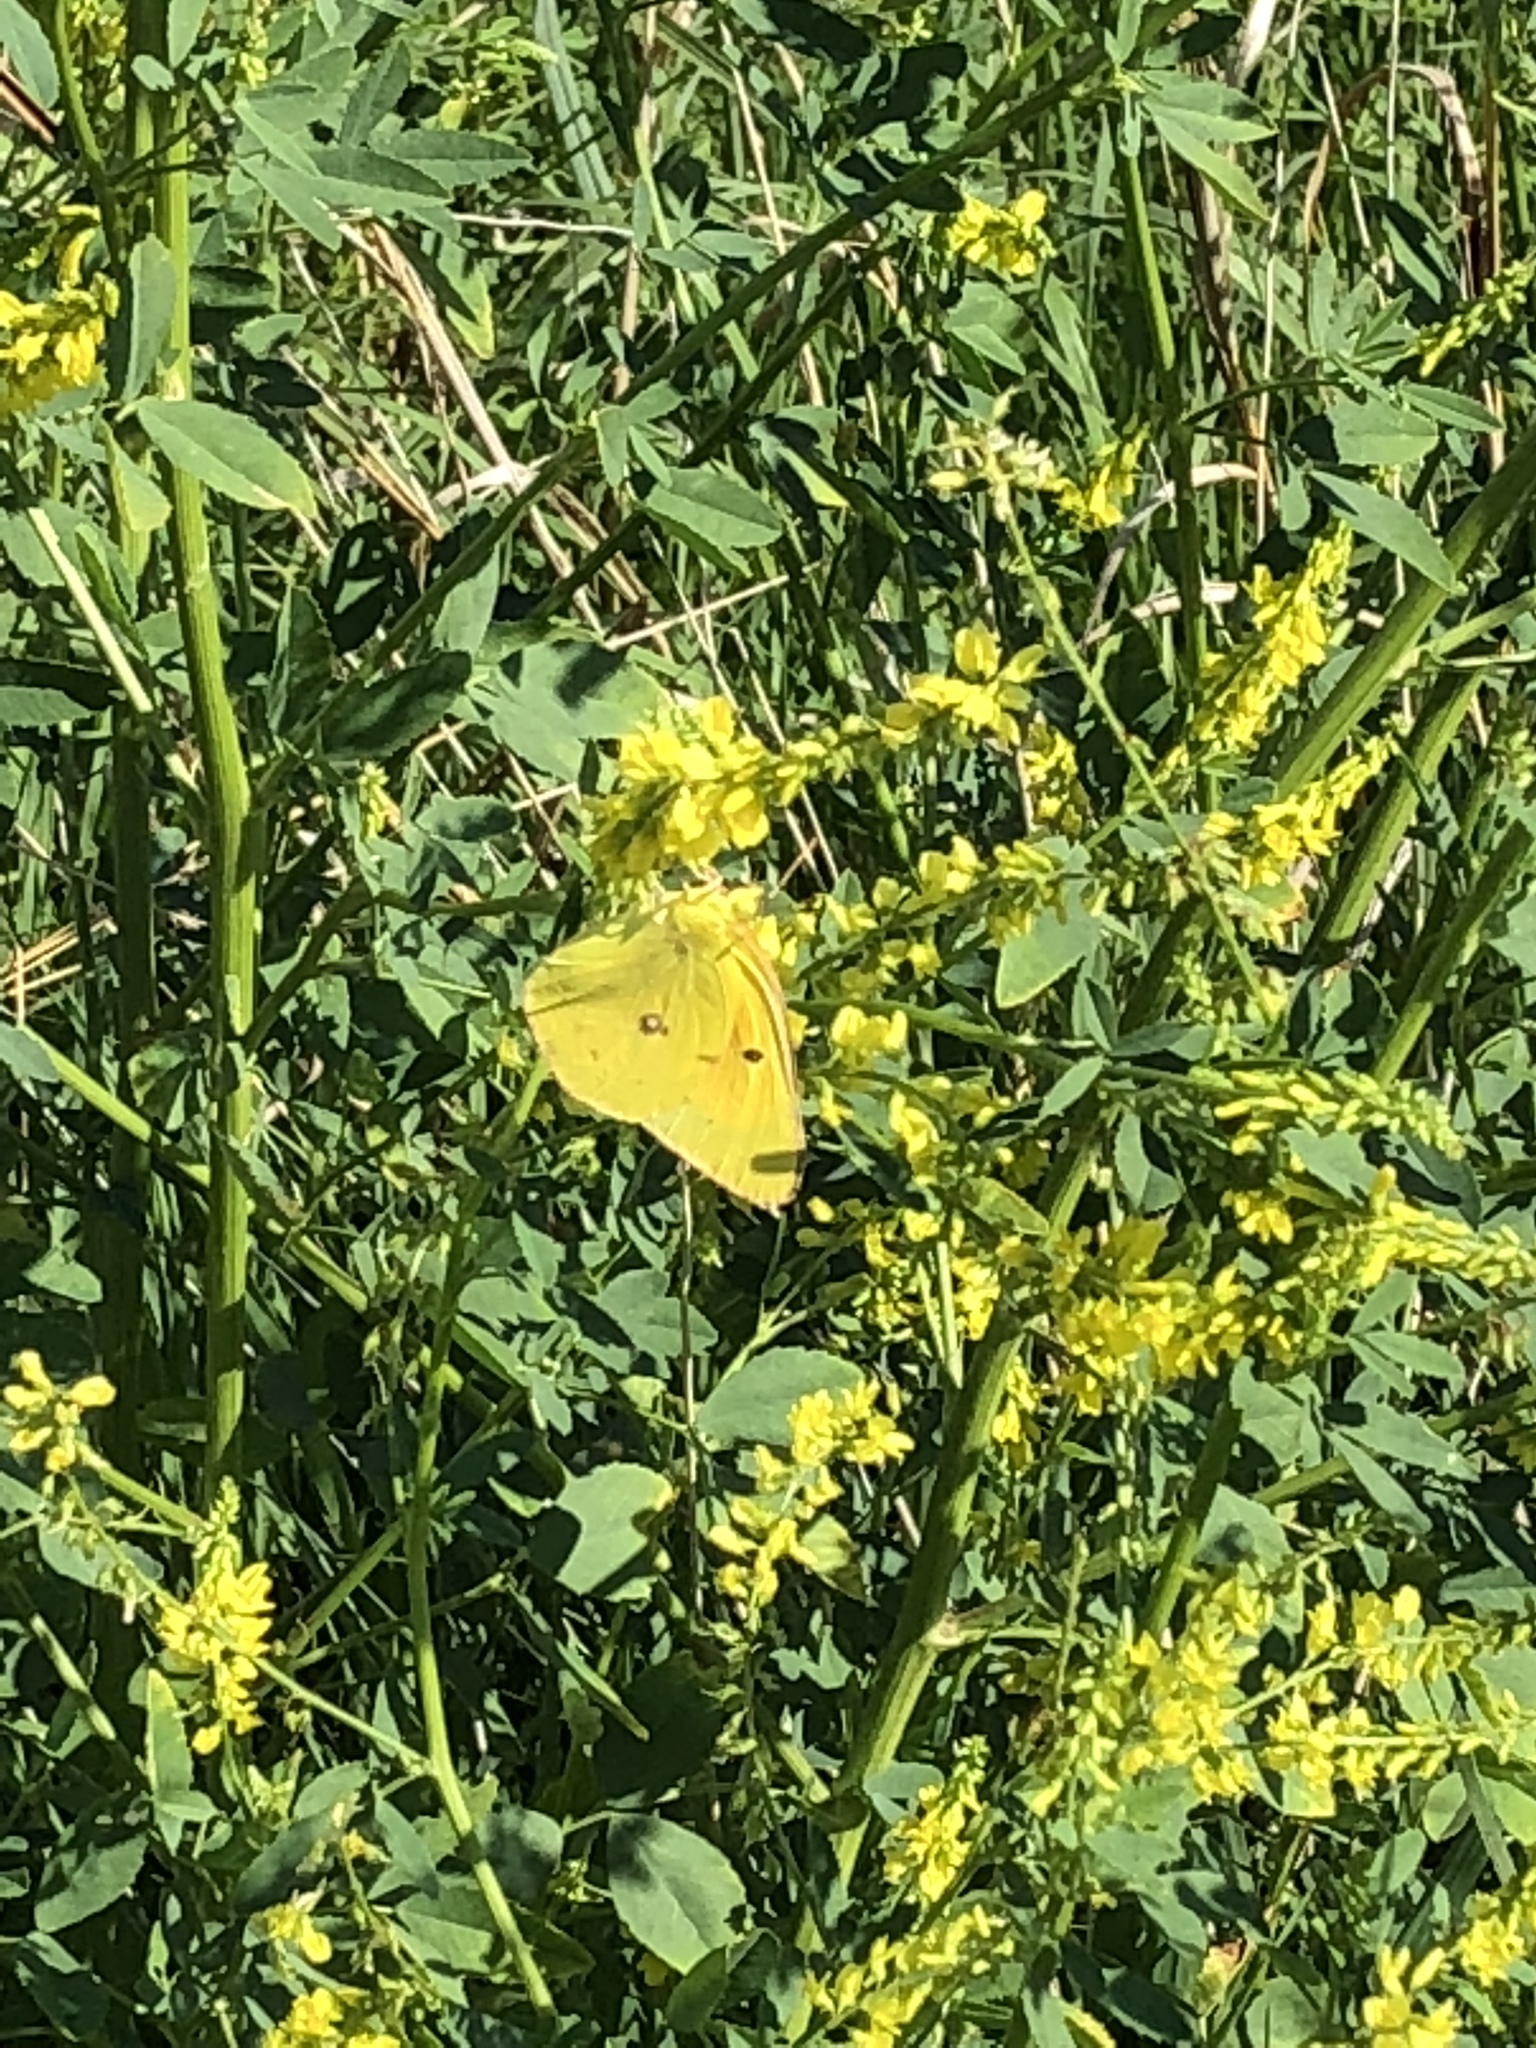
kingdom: Animalia
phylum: Arthropoda
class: Insecta
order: Lepidoptera
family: Pieridae
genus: Colias
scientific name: Colias eurytheme
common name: Alfalfa butterfly
